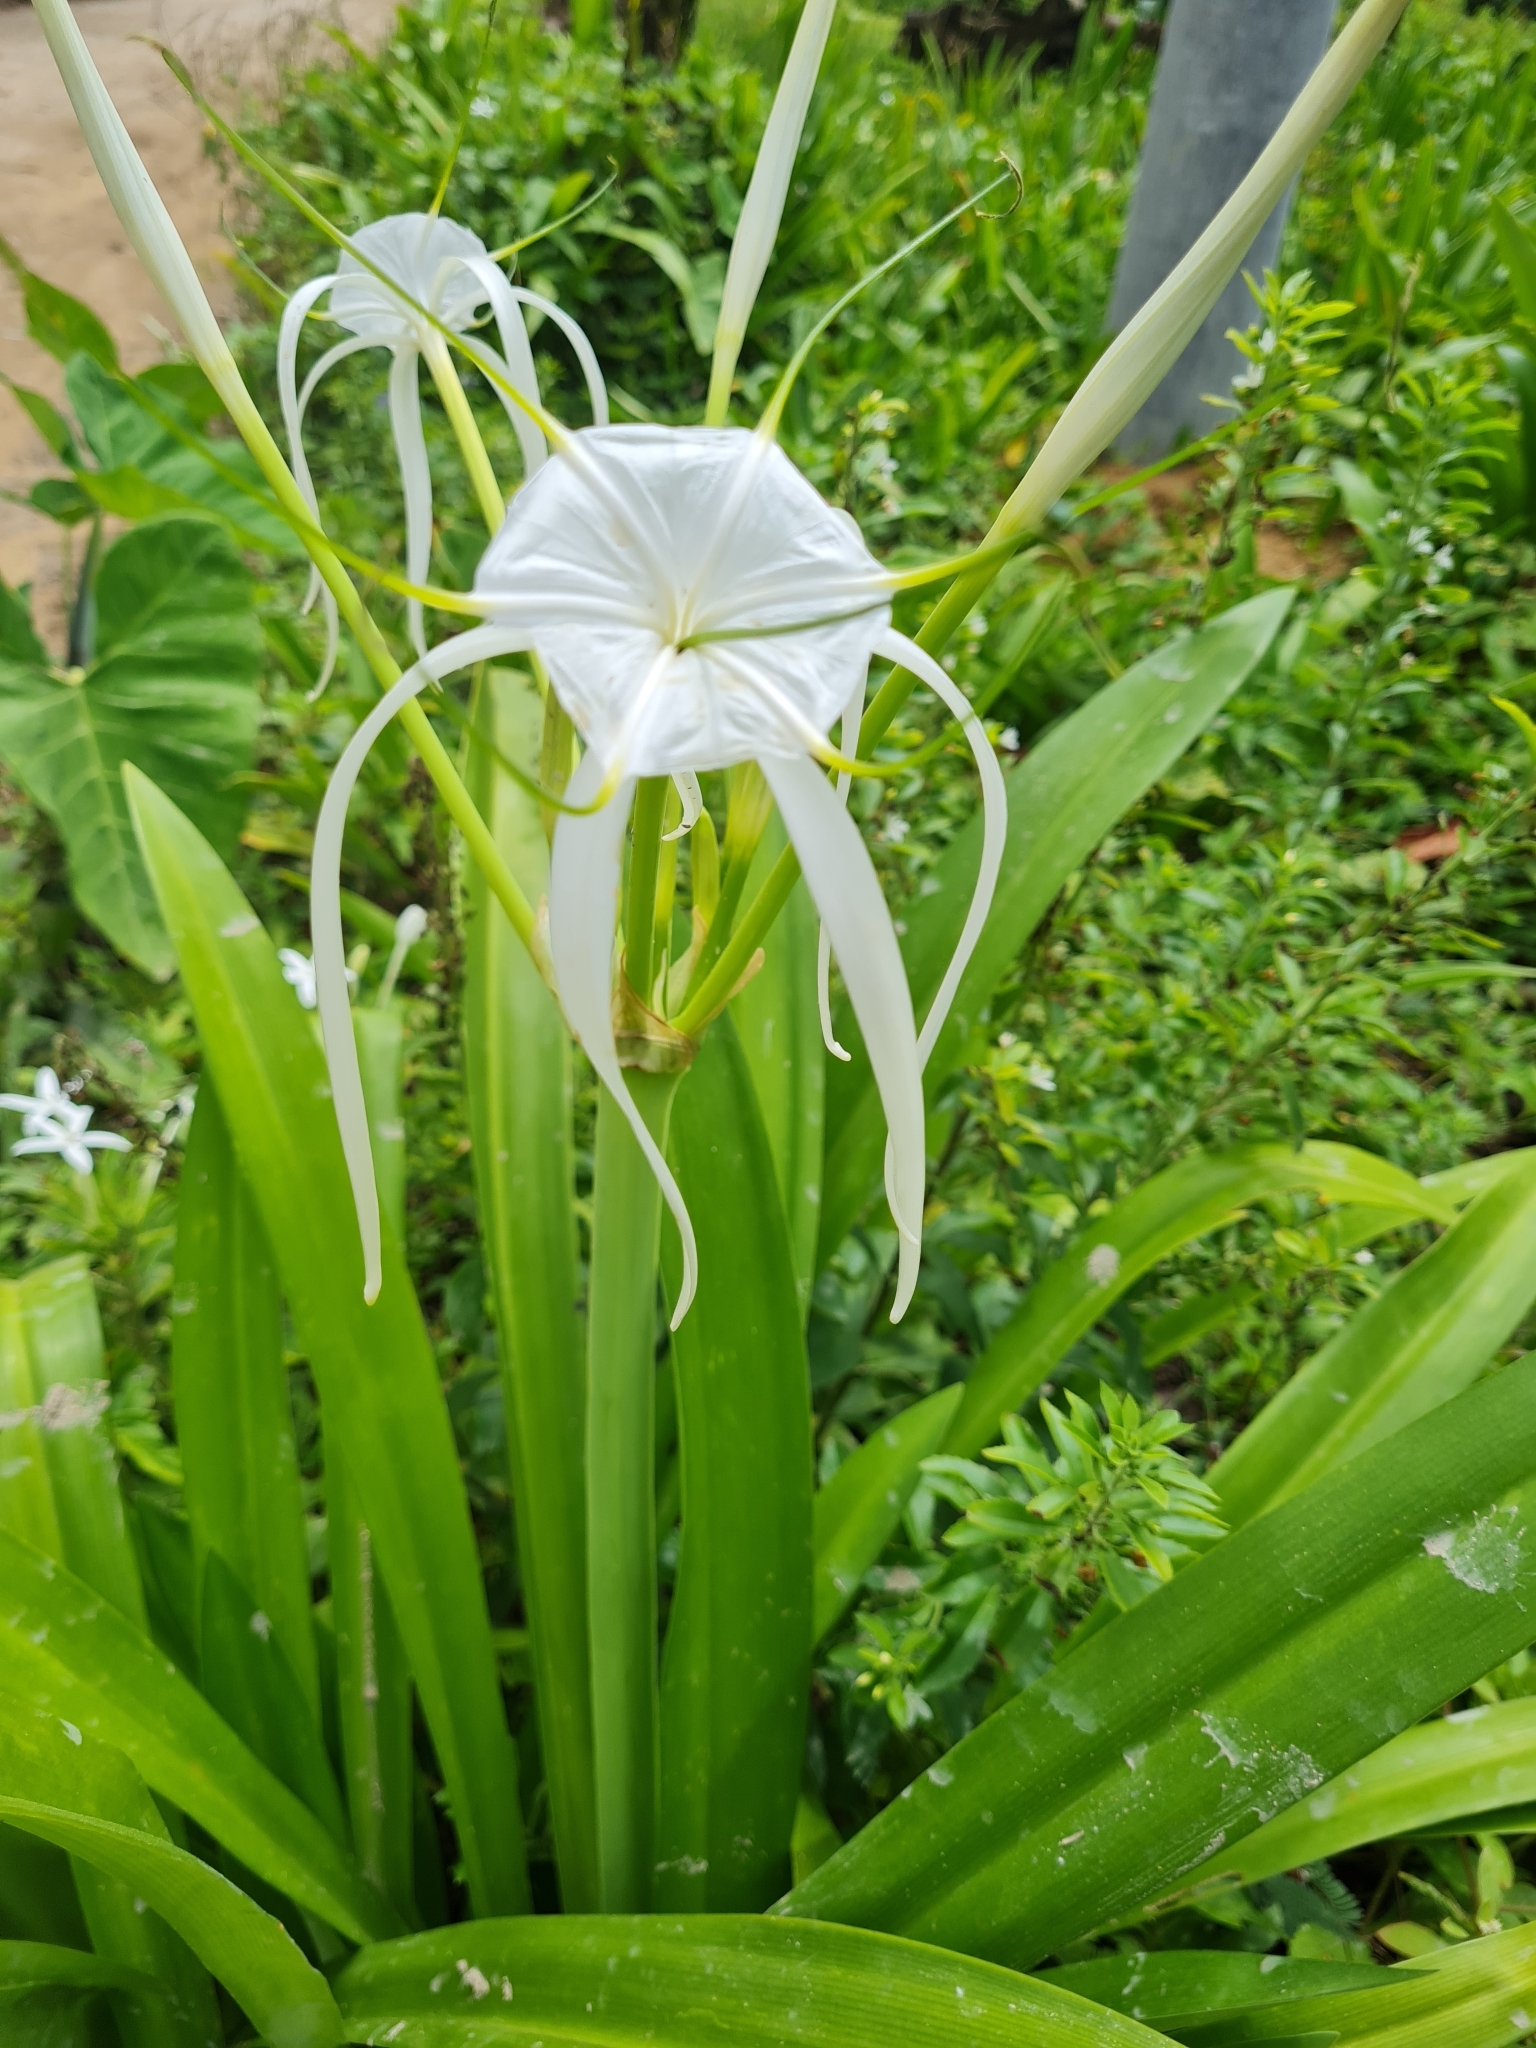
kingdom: Plantae
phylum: Tracheophyta
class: Liliopsida
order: Asparagales
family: Amaryllidaceae
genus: Hymenocallis
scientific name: Hymenocallis littoralis
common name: Beach spiderlily
